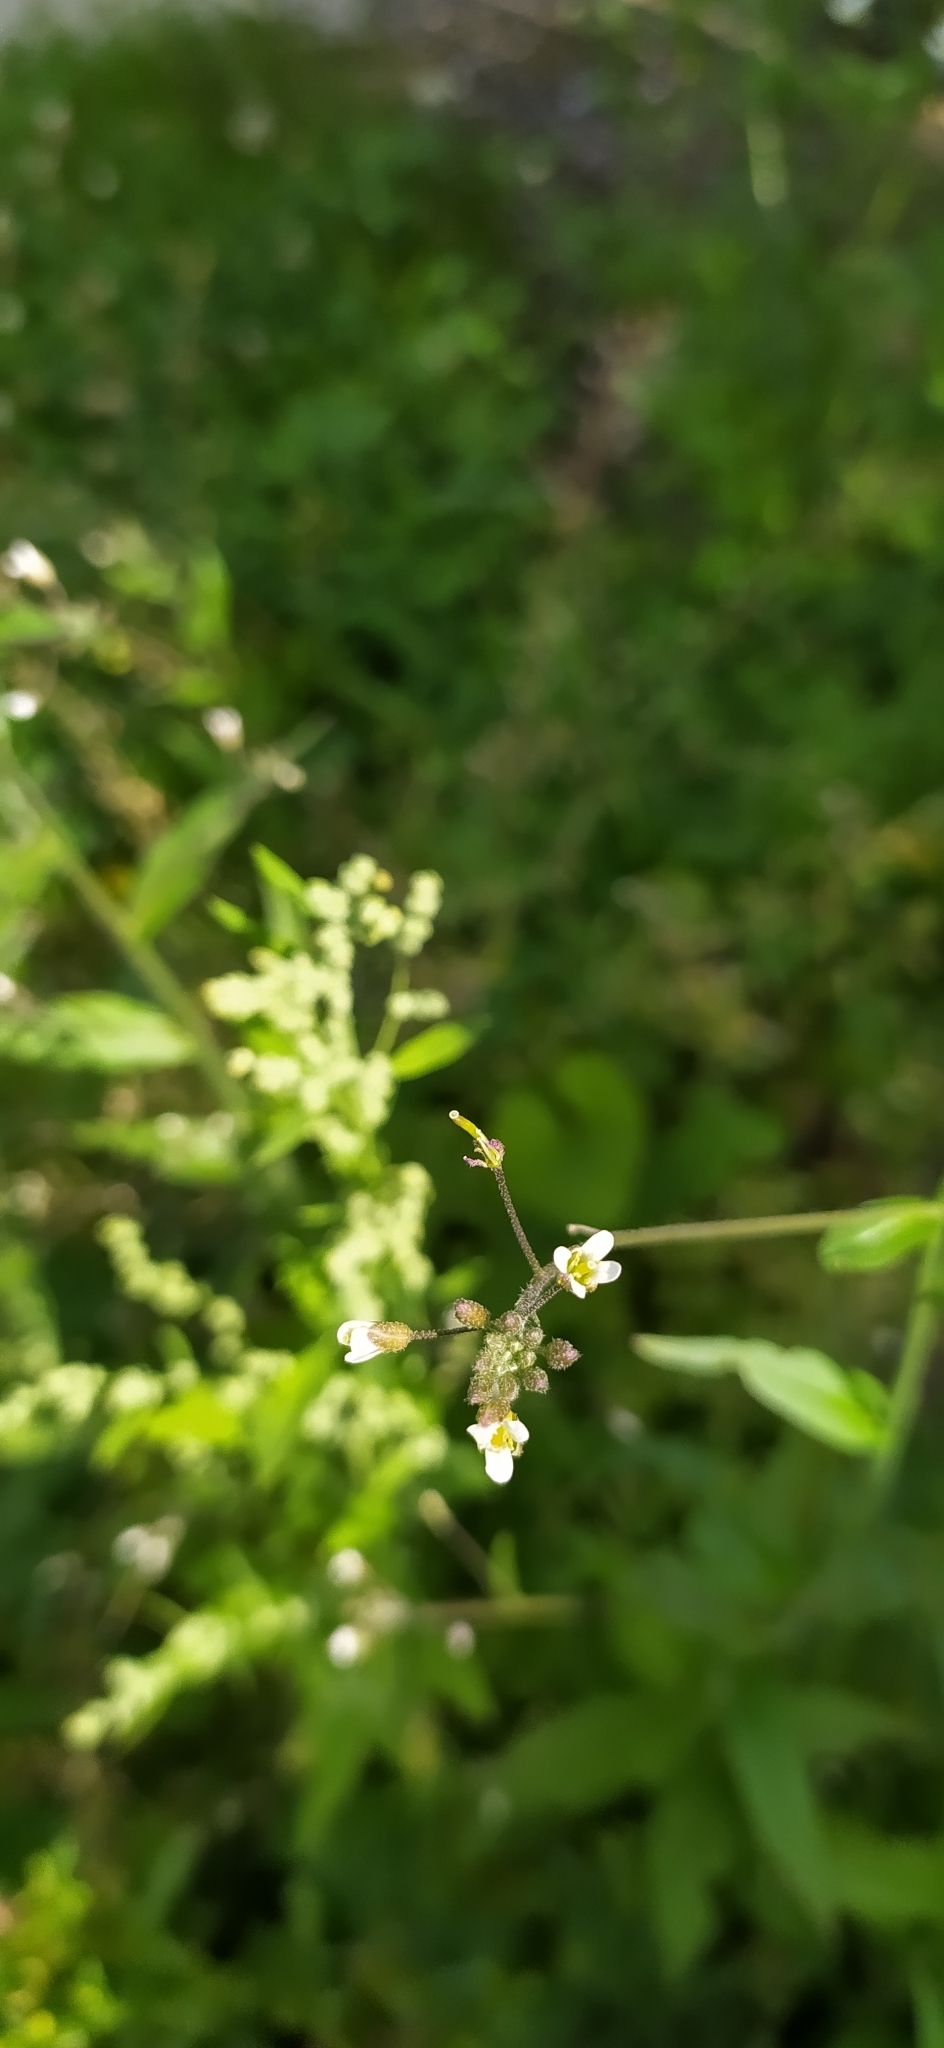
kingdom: Plantae
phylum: Tracheophyta
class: Magnoliopsida
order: Brassicales
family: Brassicaceae
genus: Catolobus
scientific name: Catolobus pendulus
